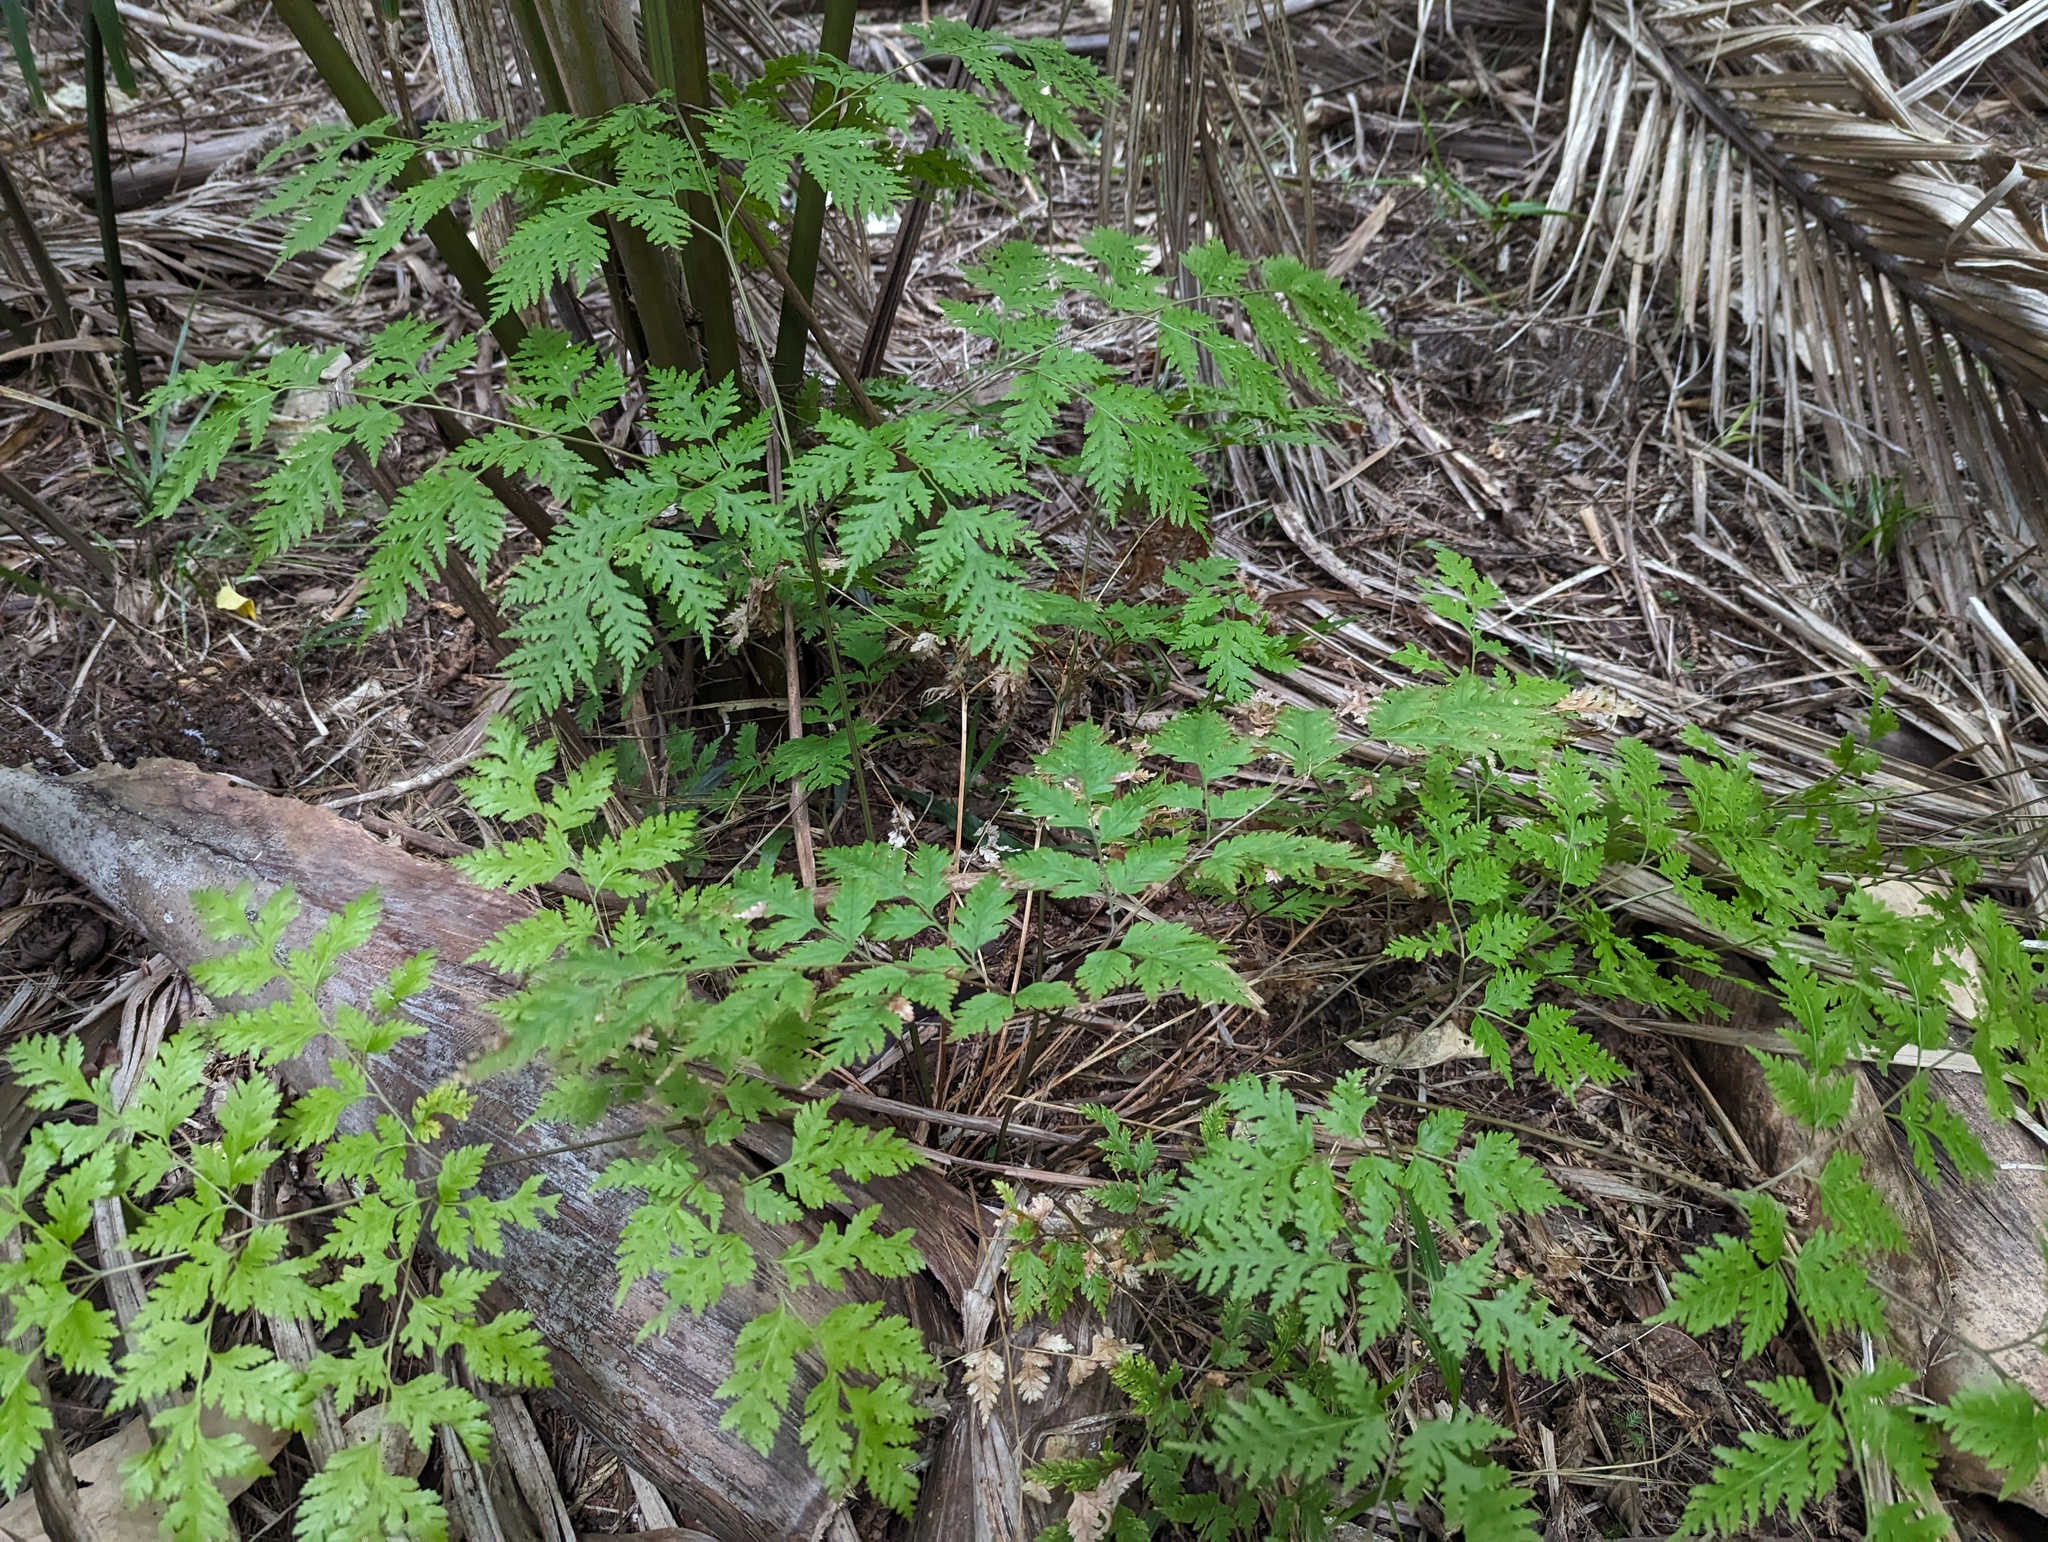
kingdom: Plantae
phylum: Tracheophyta
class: Polypodiopsida
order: Polypodiales
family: Pteridaceae
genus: Pteris
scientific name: Pteris macilenta
